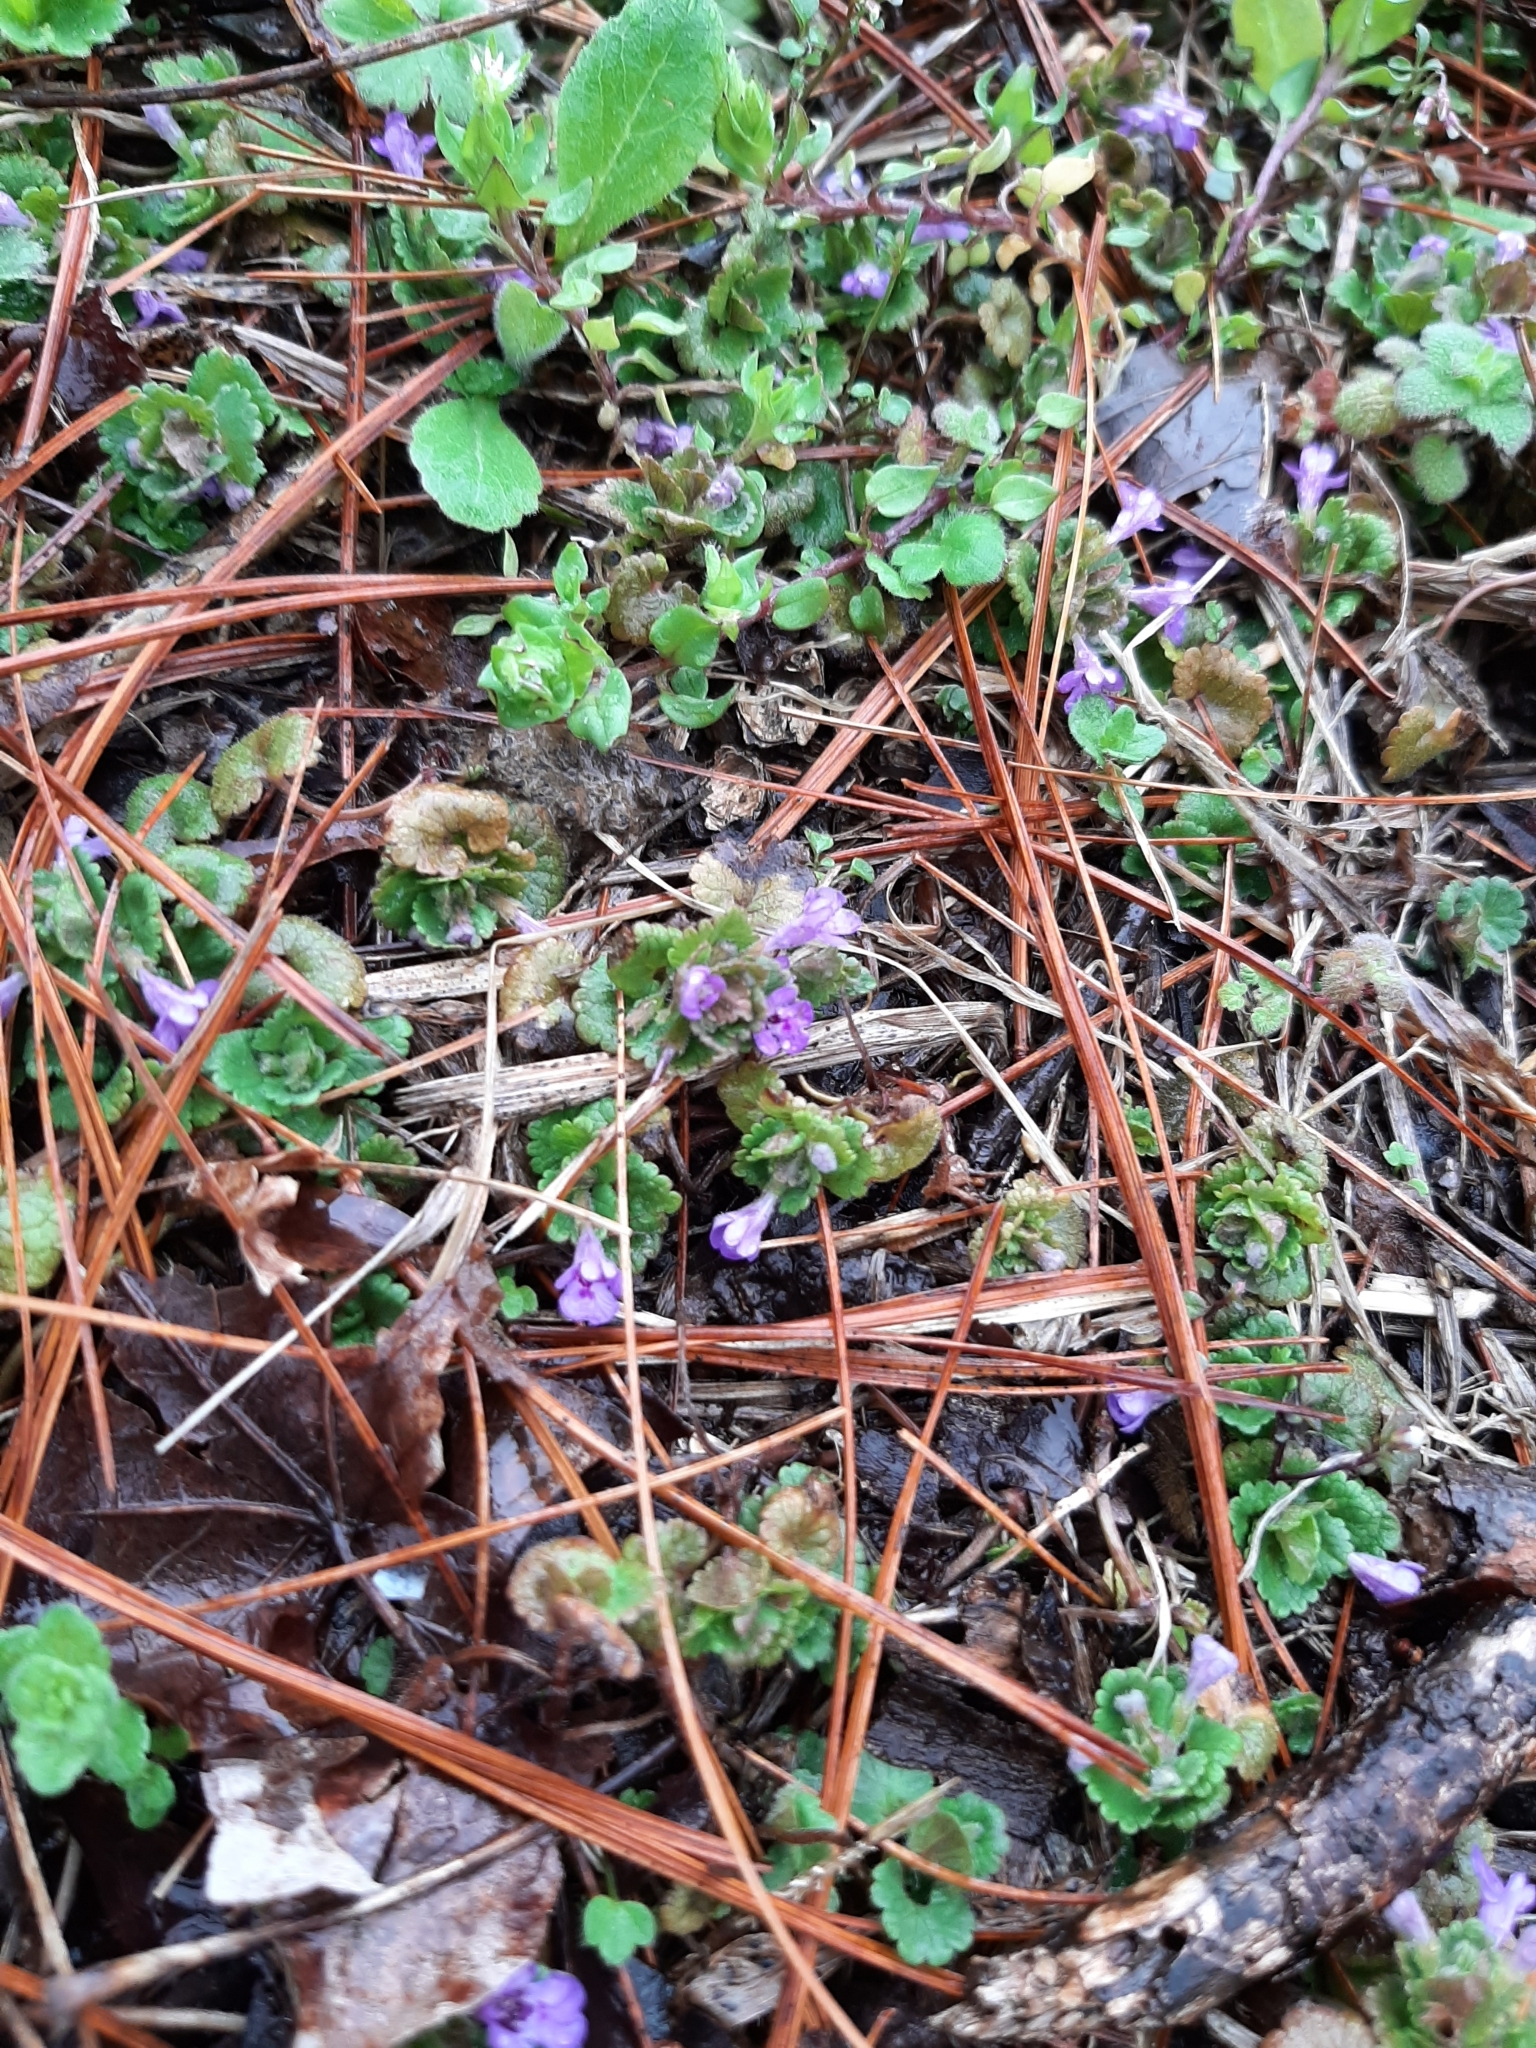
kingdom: Plantae
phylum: Tracheophyta
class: Magnoliopsida
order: Lamiales
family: Lamiaceae
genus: Glechoma
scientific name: Glechoma hederacea
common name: Ground ivy
